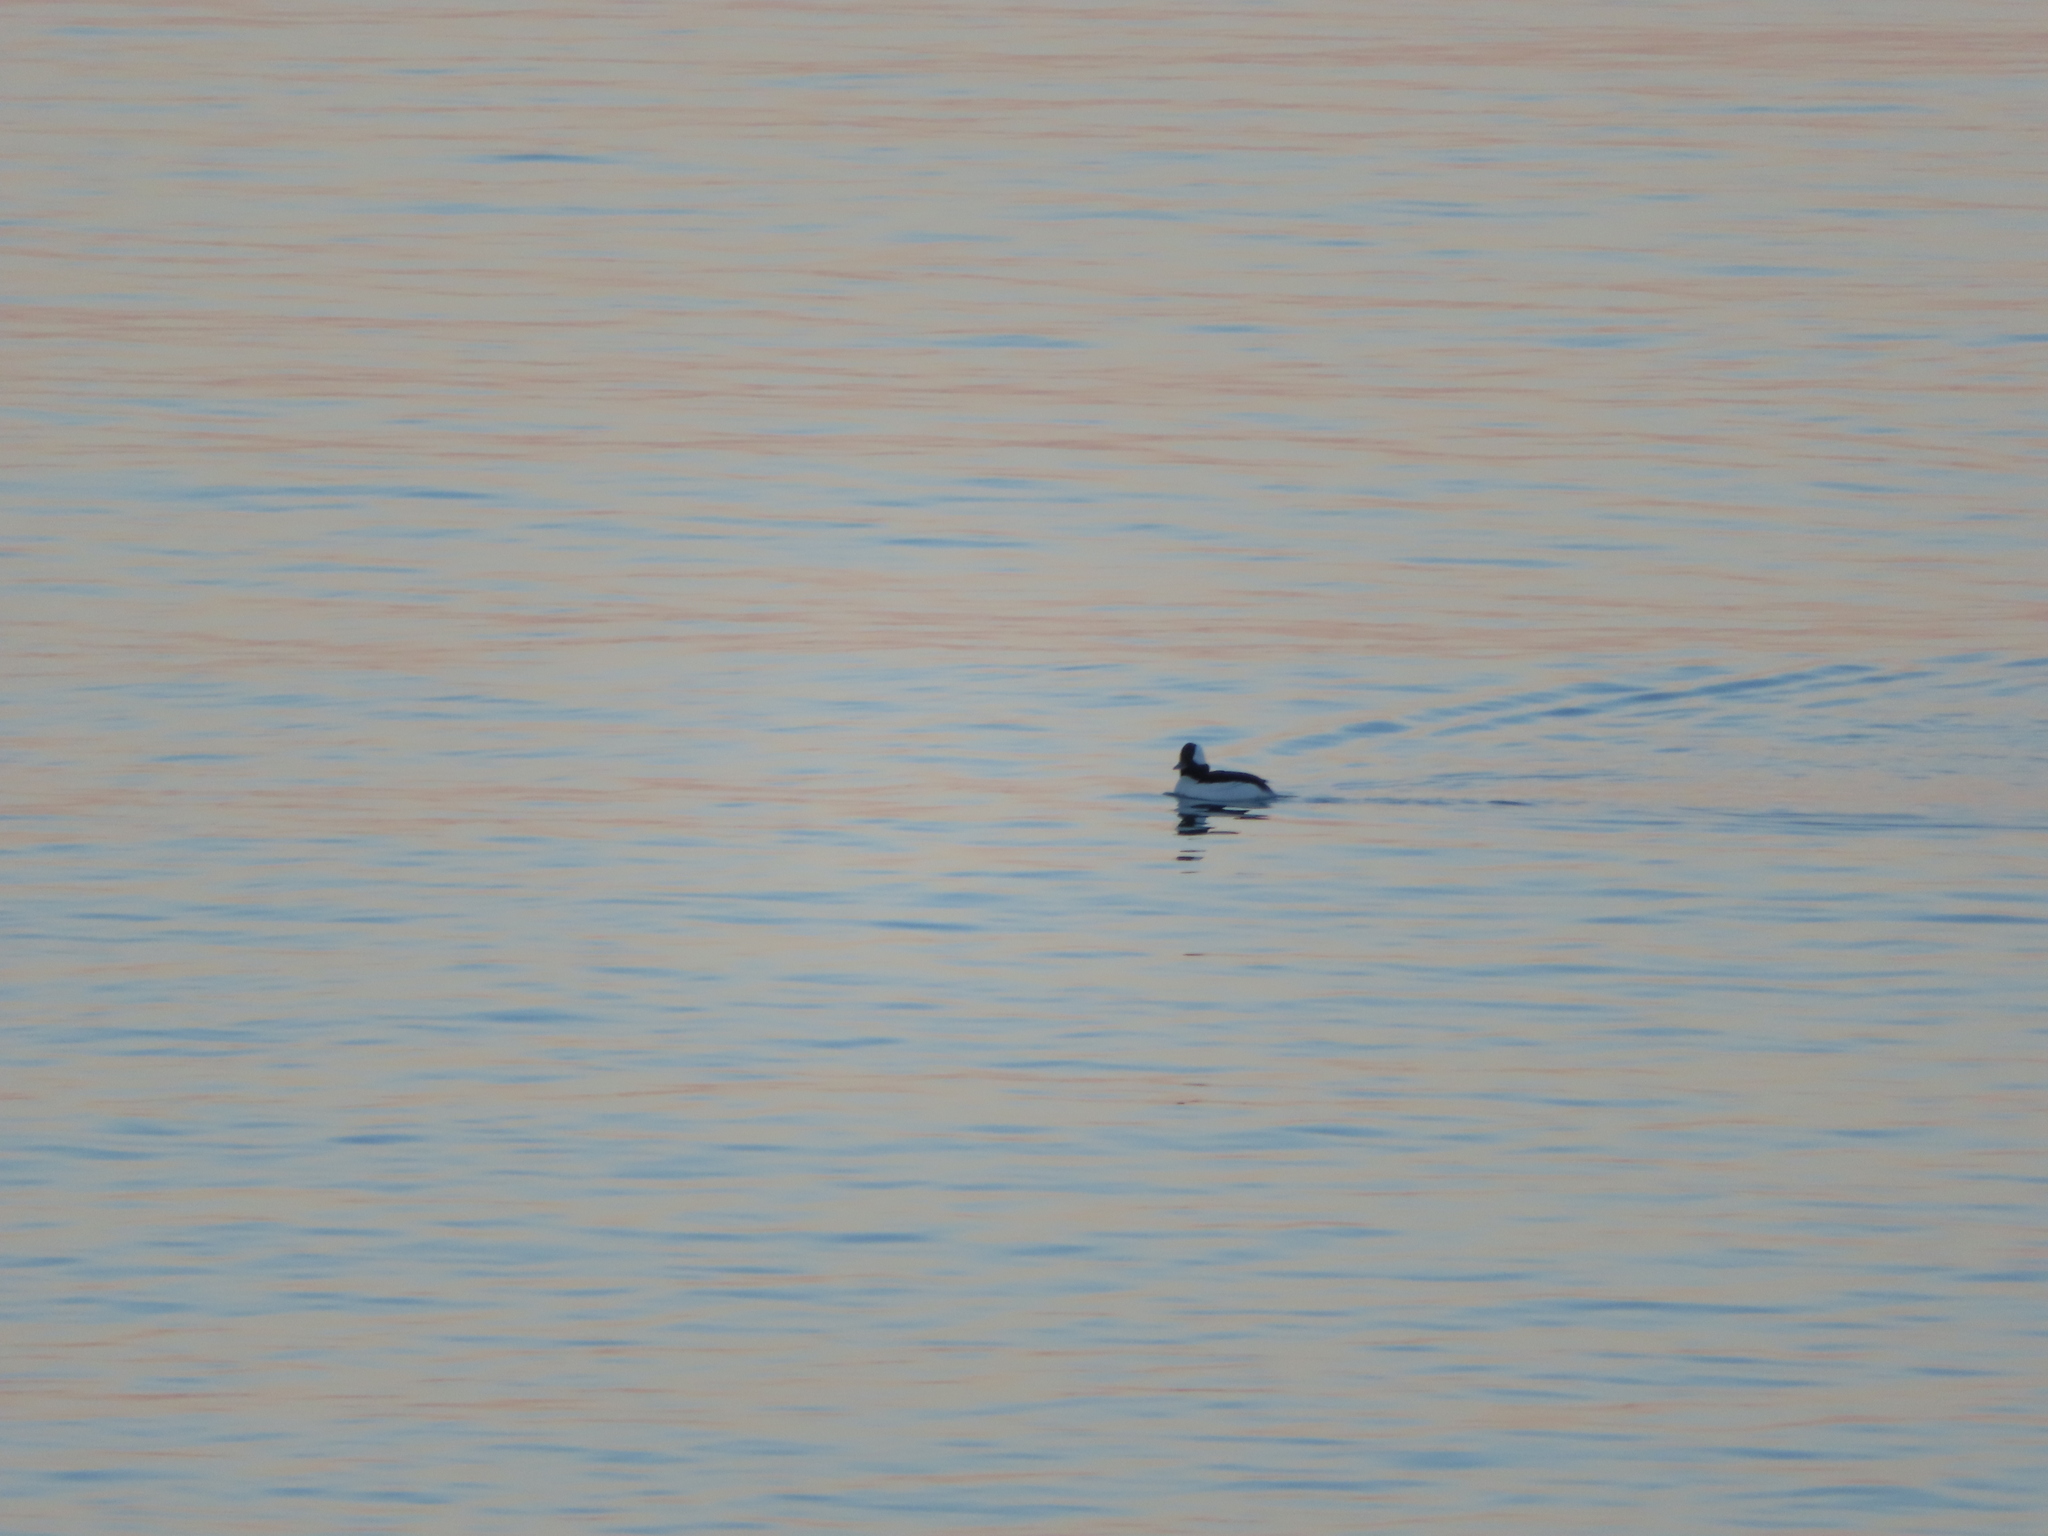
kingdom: Animalia
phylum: Chordata
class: Aves
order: Anseriformes
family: Anatidae
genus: Bucephala
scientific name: Bucephala albeola
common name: Bufflehead
